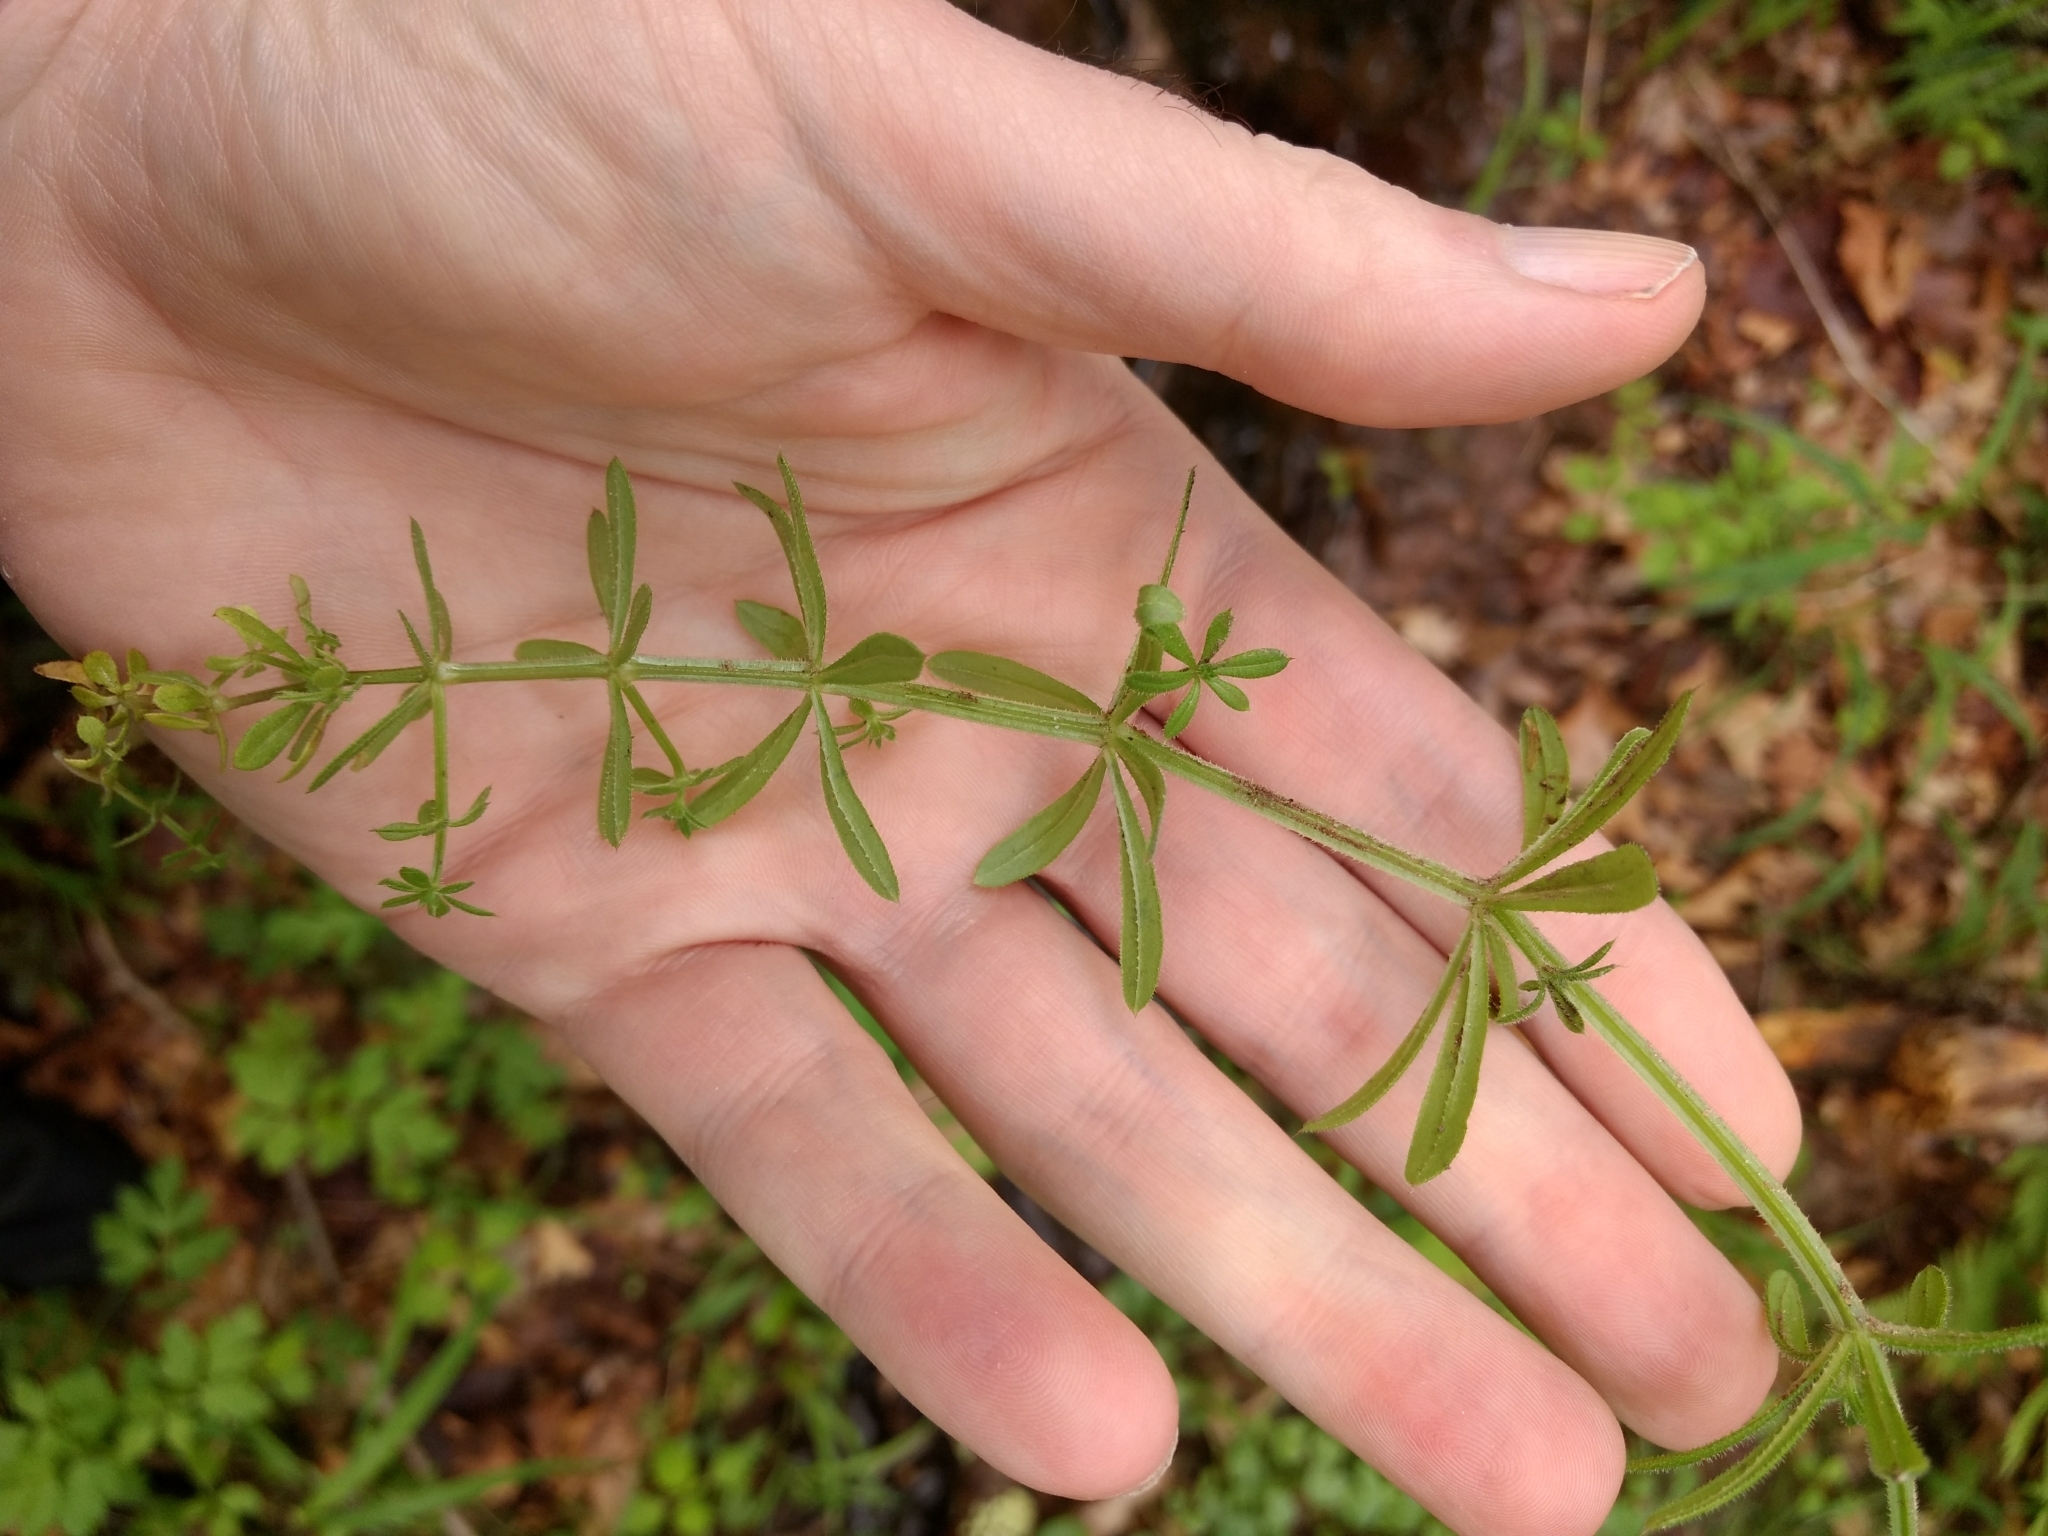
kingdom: Plantae
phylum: Tracheophyta
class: Magnoliopsida
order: Gentianales
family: Rubiaceae
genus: Galium
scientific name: Galium aparine
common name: Cleavers
